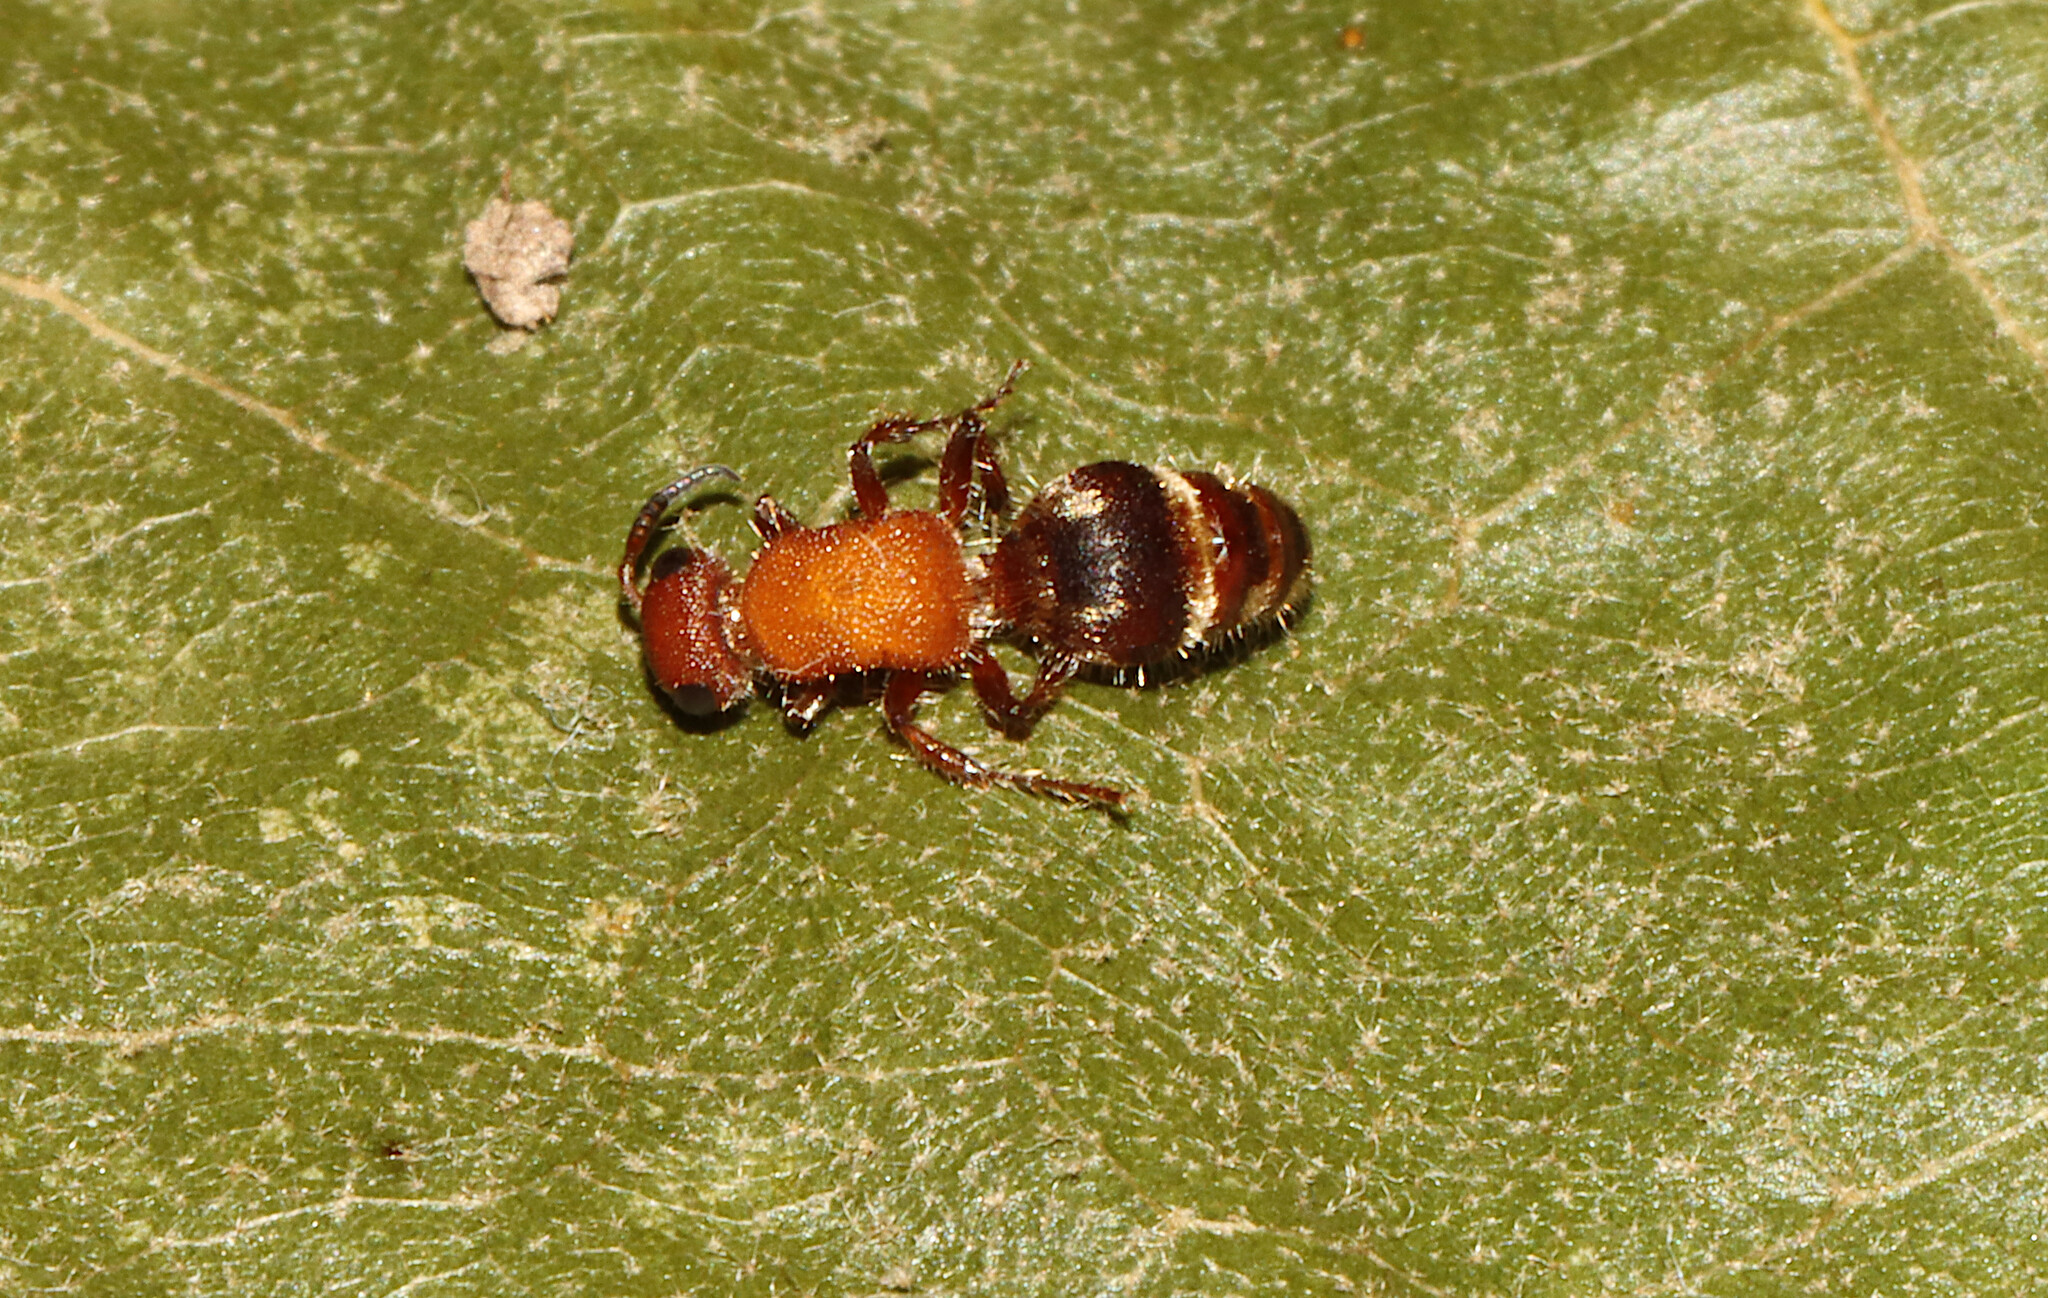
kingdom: Animalia
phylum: Arthropoda
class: Insecta
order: Hymenoptera
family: Mutillidae
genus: Timulla
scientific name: Timulla
